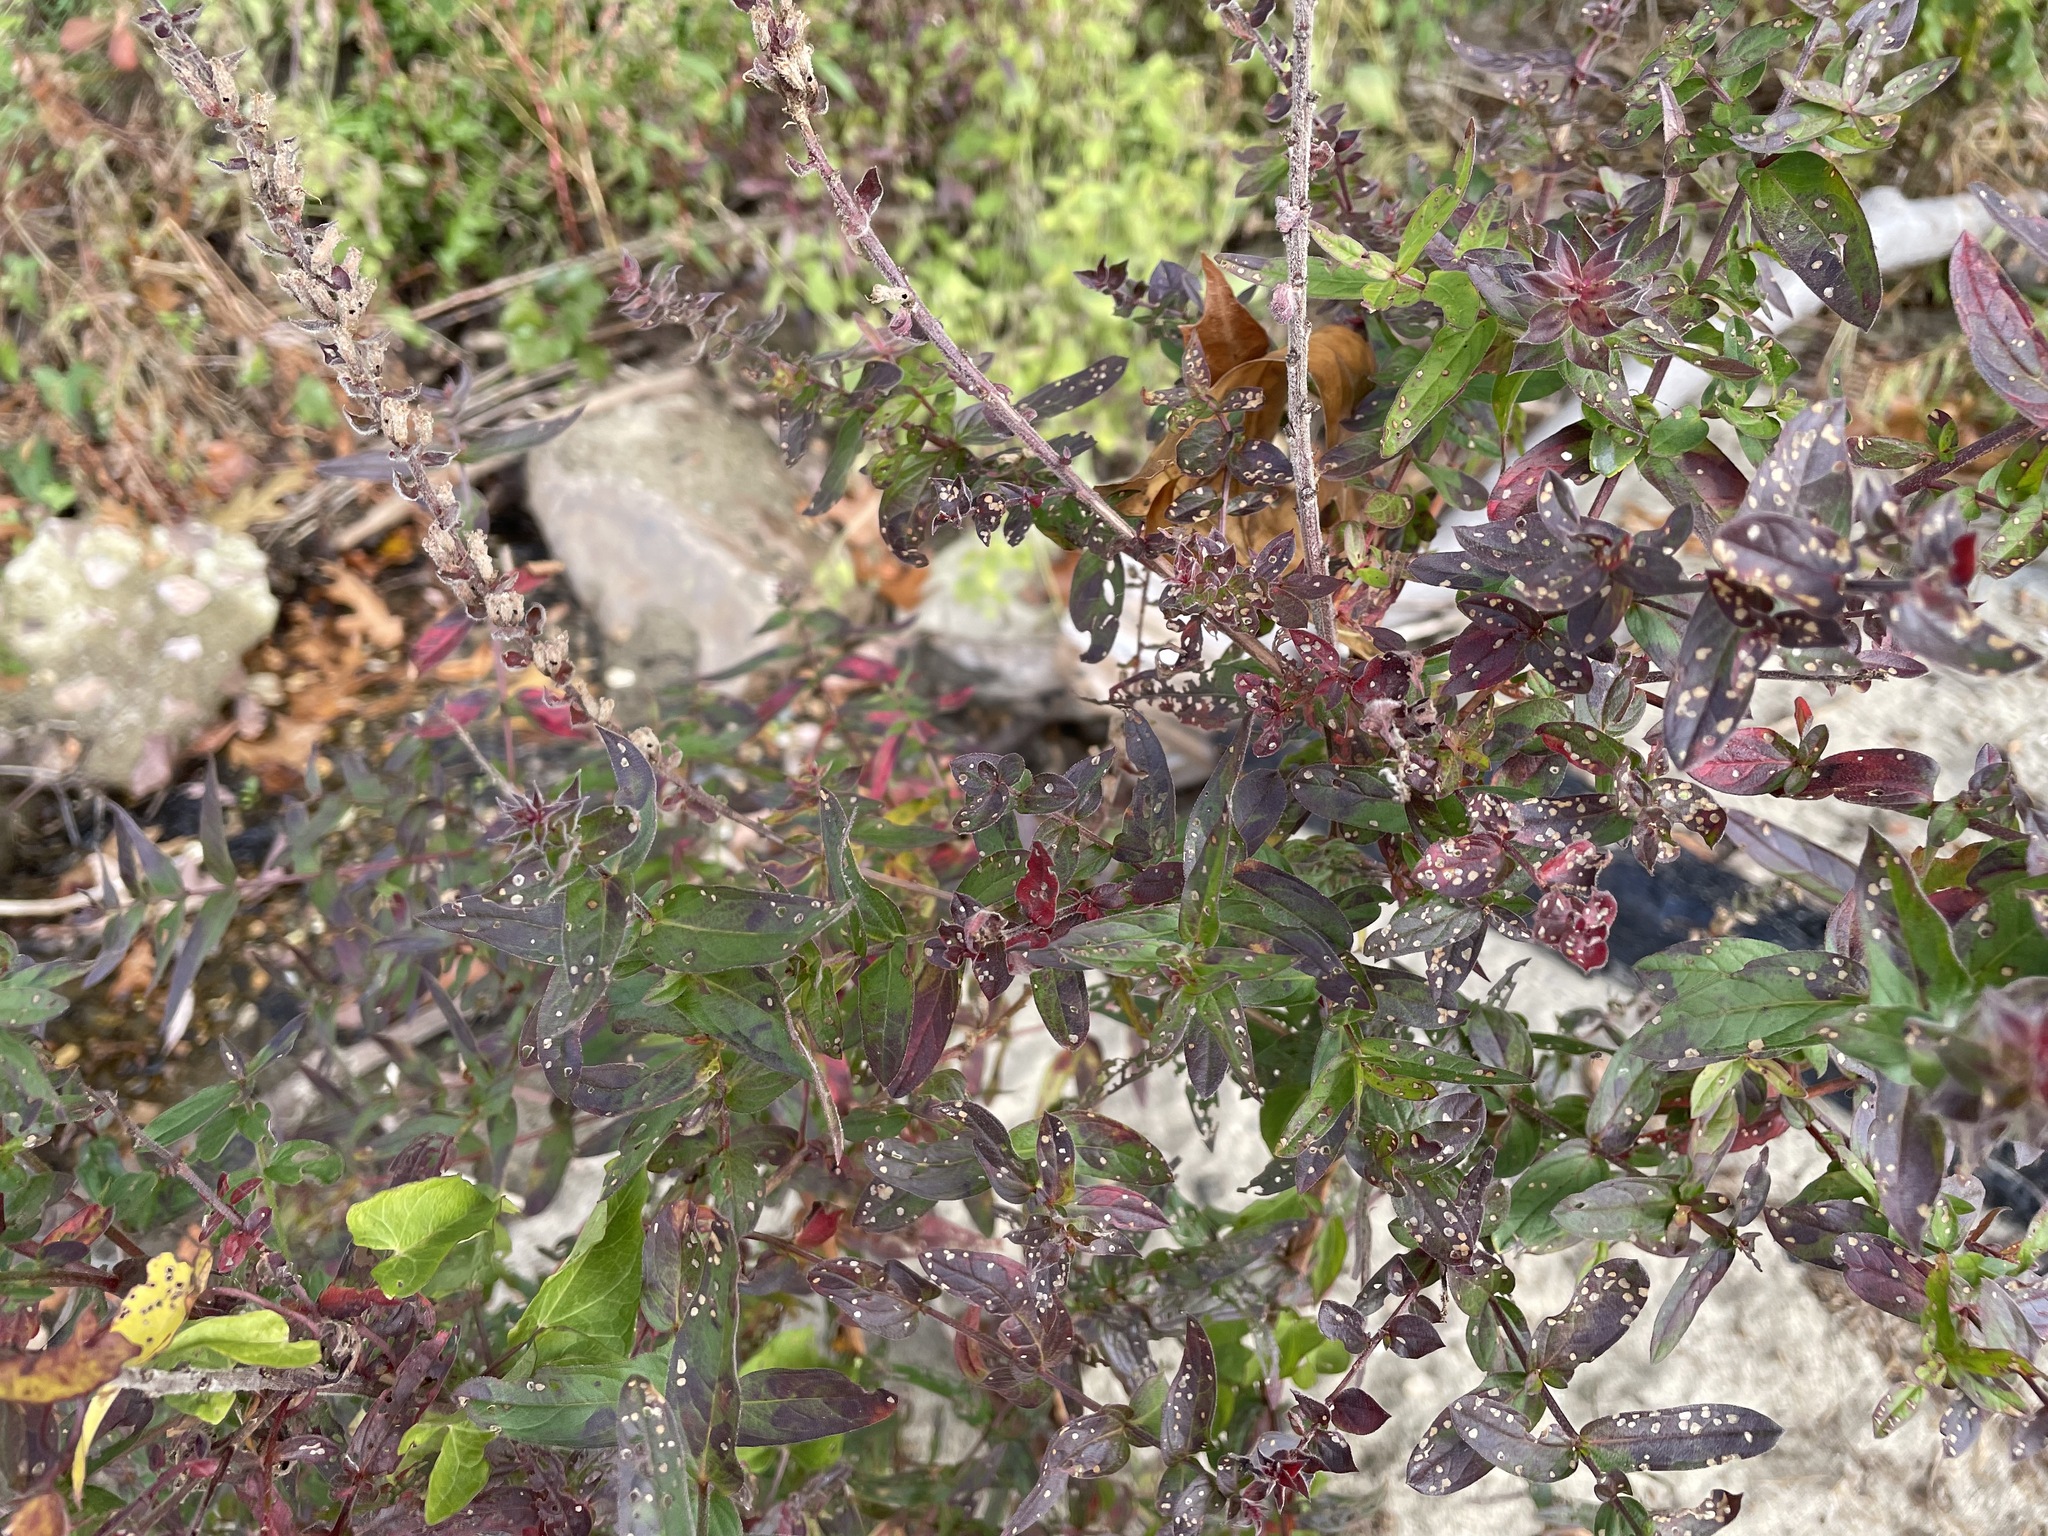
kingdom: Plantae
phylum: Tracheophyta
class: Magnoliopsida
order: Myrtales
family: Lythraceae
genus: Lythrum
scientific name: Lythrum salicaria
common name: Purple loosestrife
